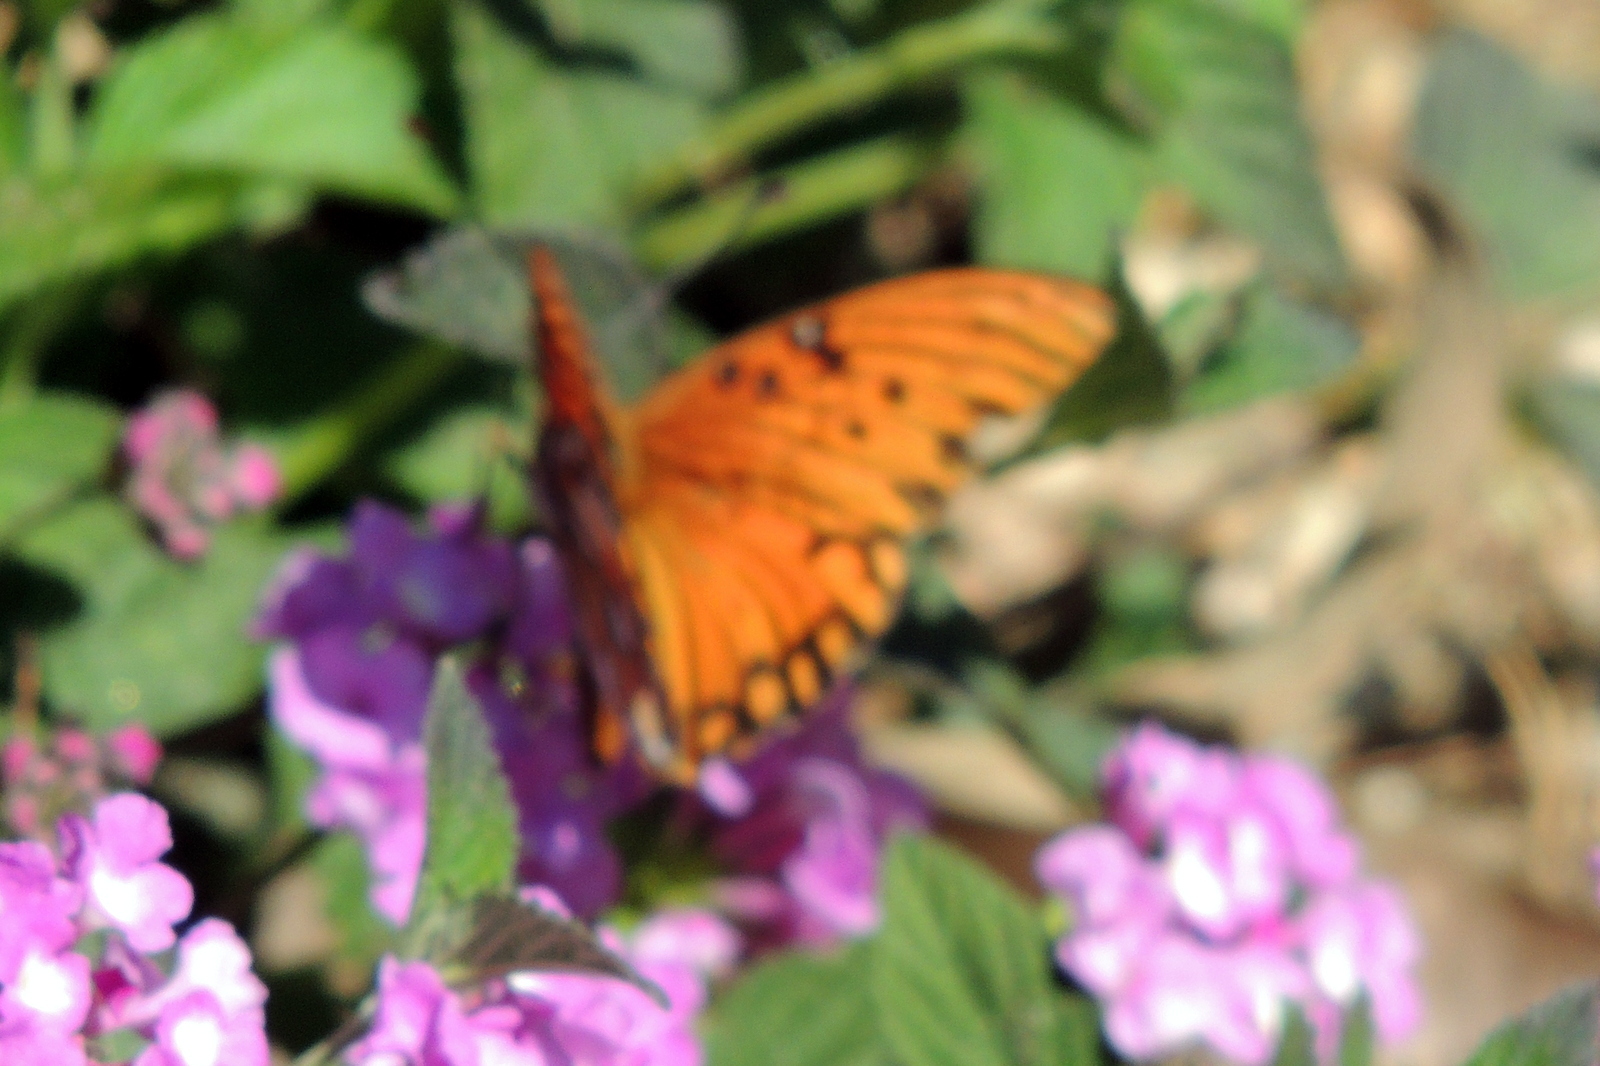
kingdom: Animalia
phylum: Arthropoda
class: Insecta
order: Lepidoptera
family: Nymphalidae
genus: Dione
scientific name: Dione vanillae
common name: Gulf fritillary
